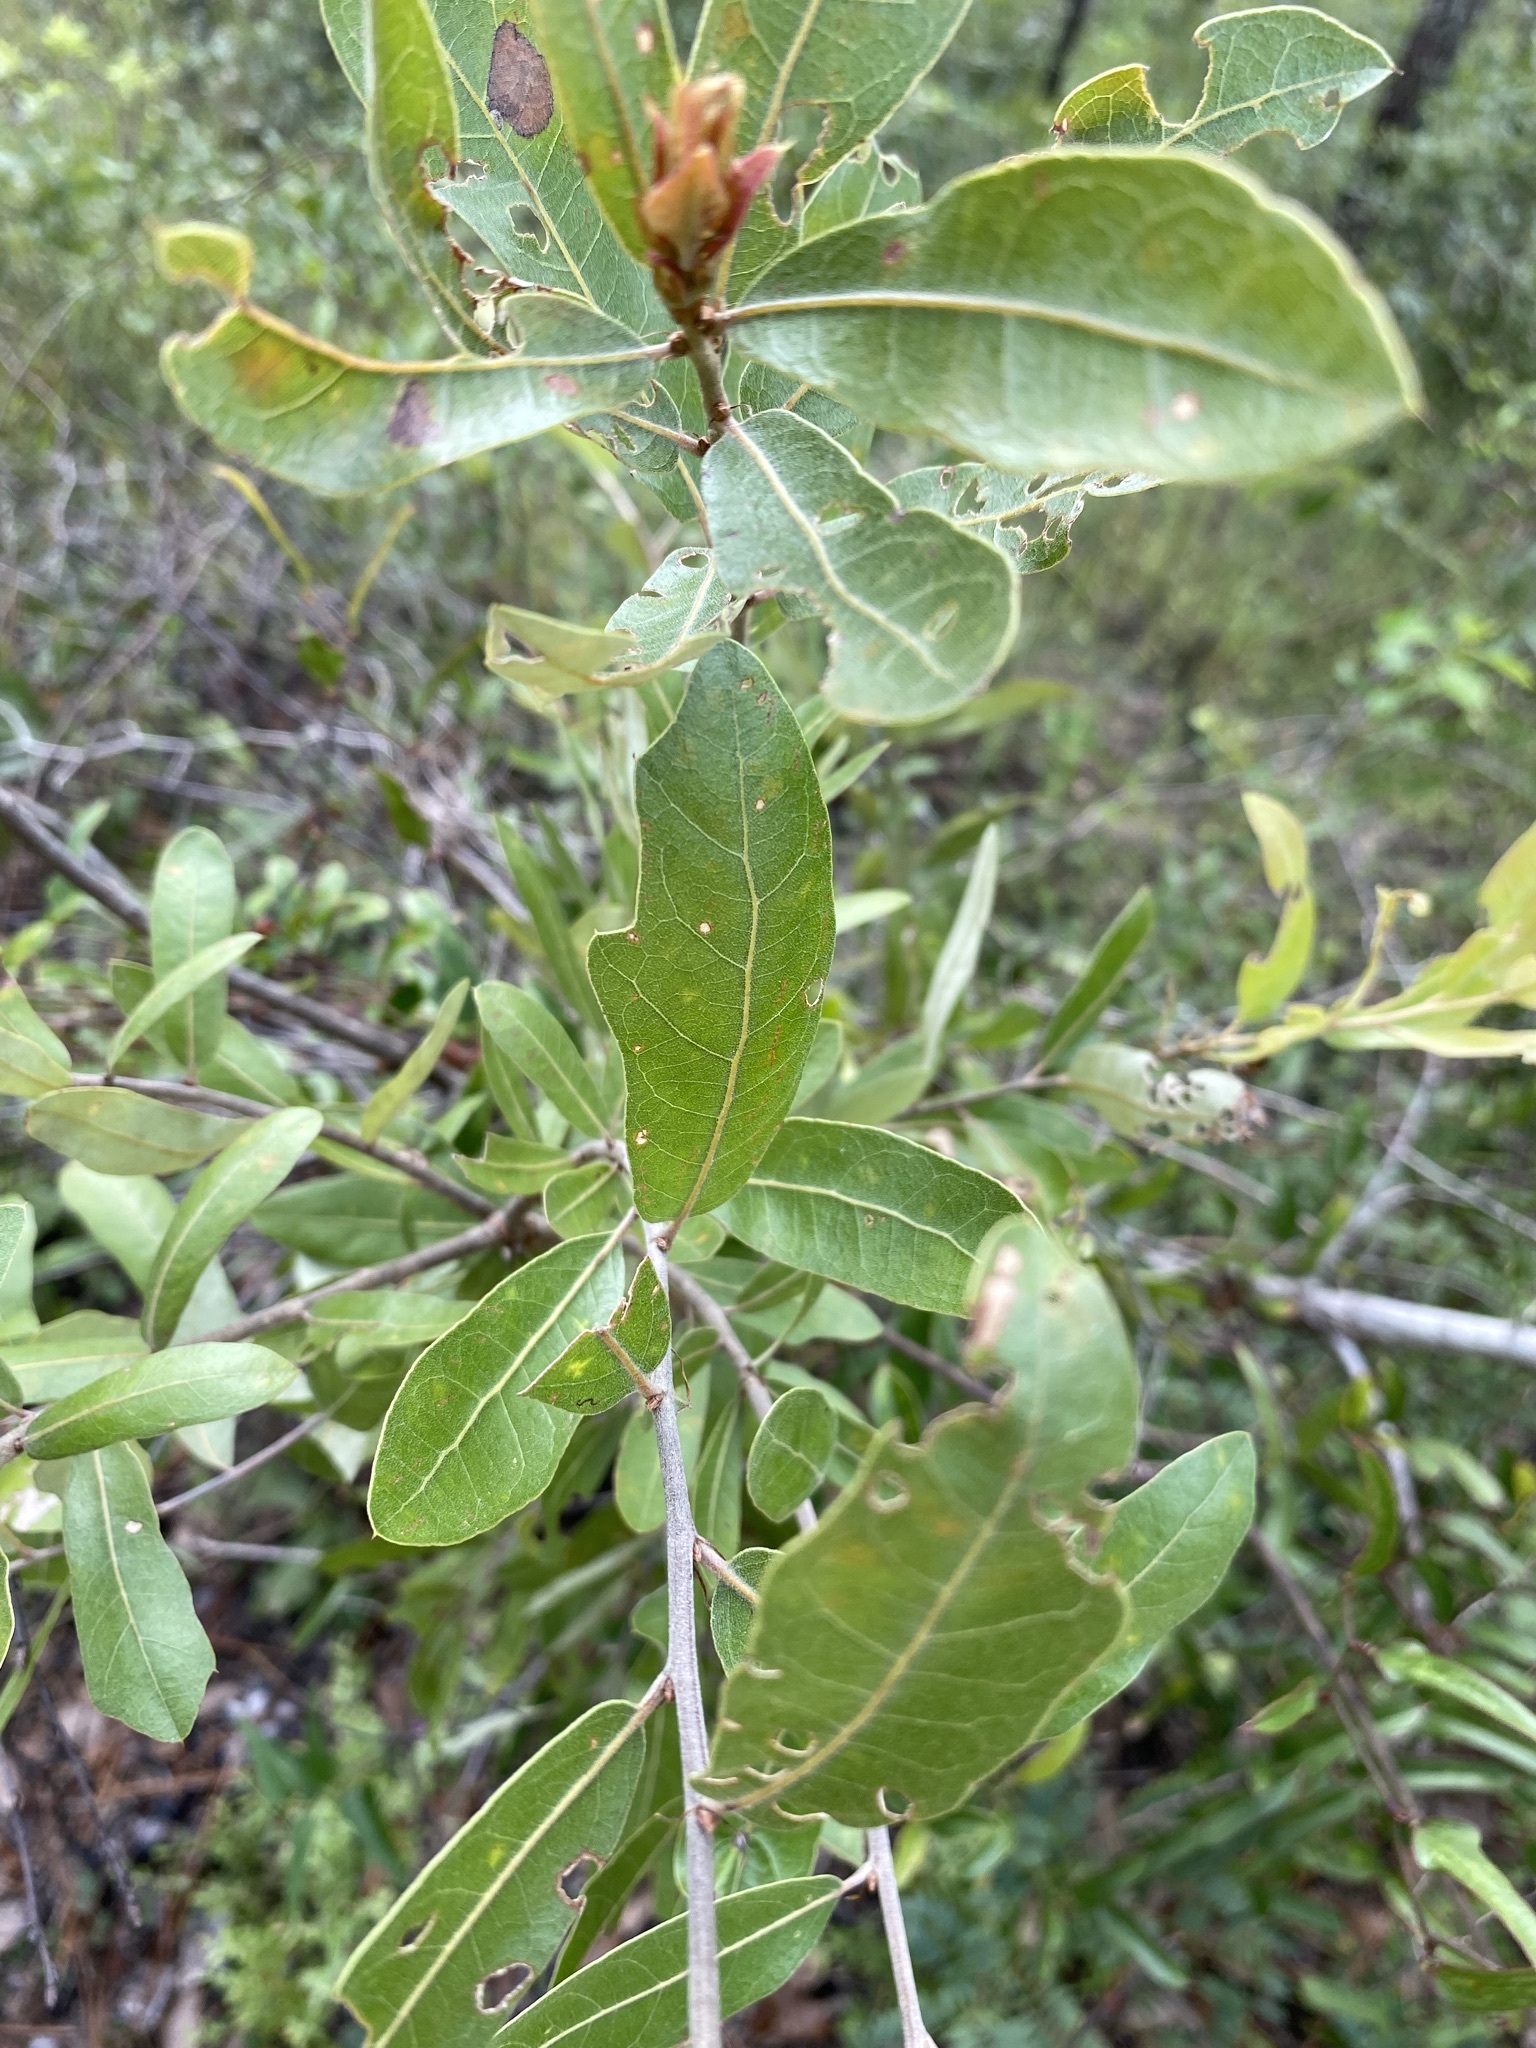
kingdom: Plantae
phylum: Tracheophyta
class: Magnoliopsida
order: Fagales
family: Fagaceae
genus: Quercus
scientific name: Quercus incana
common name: Bluejack oak
